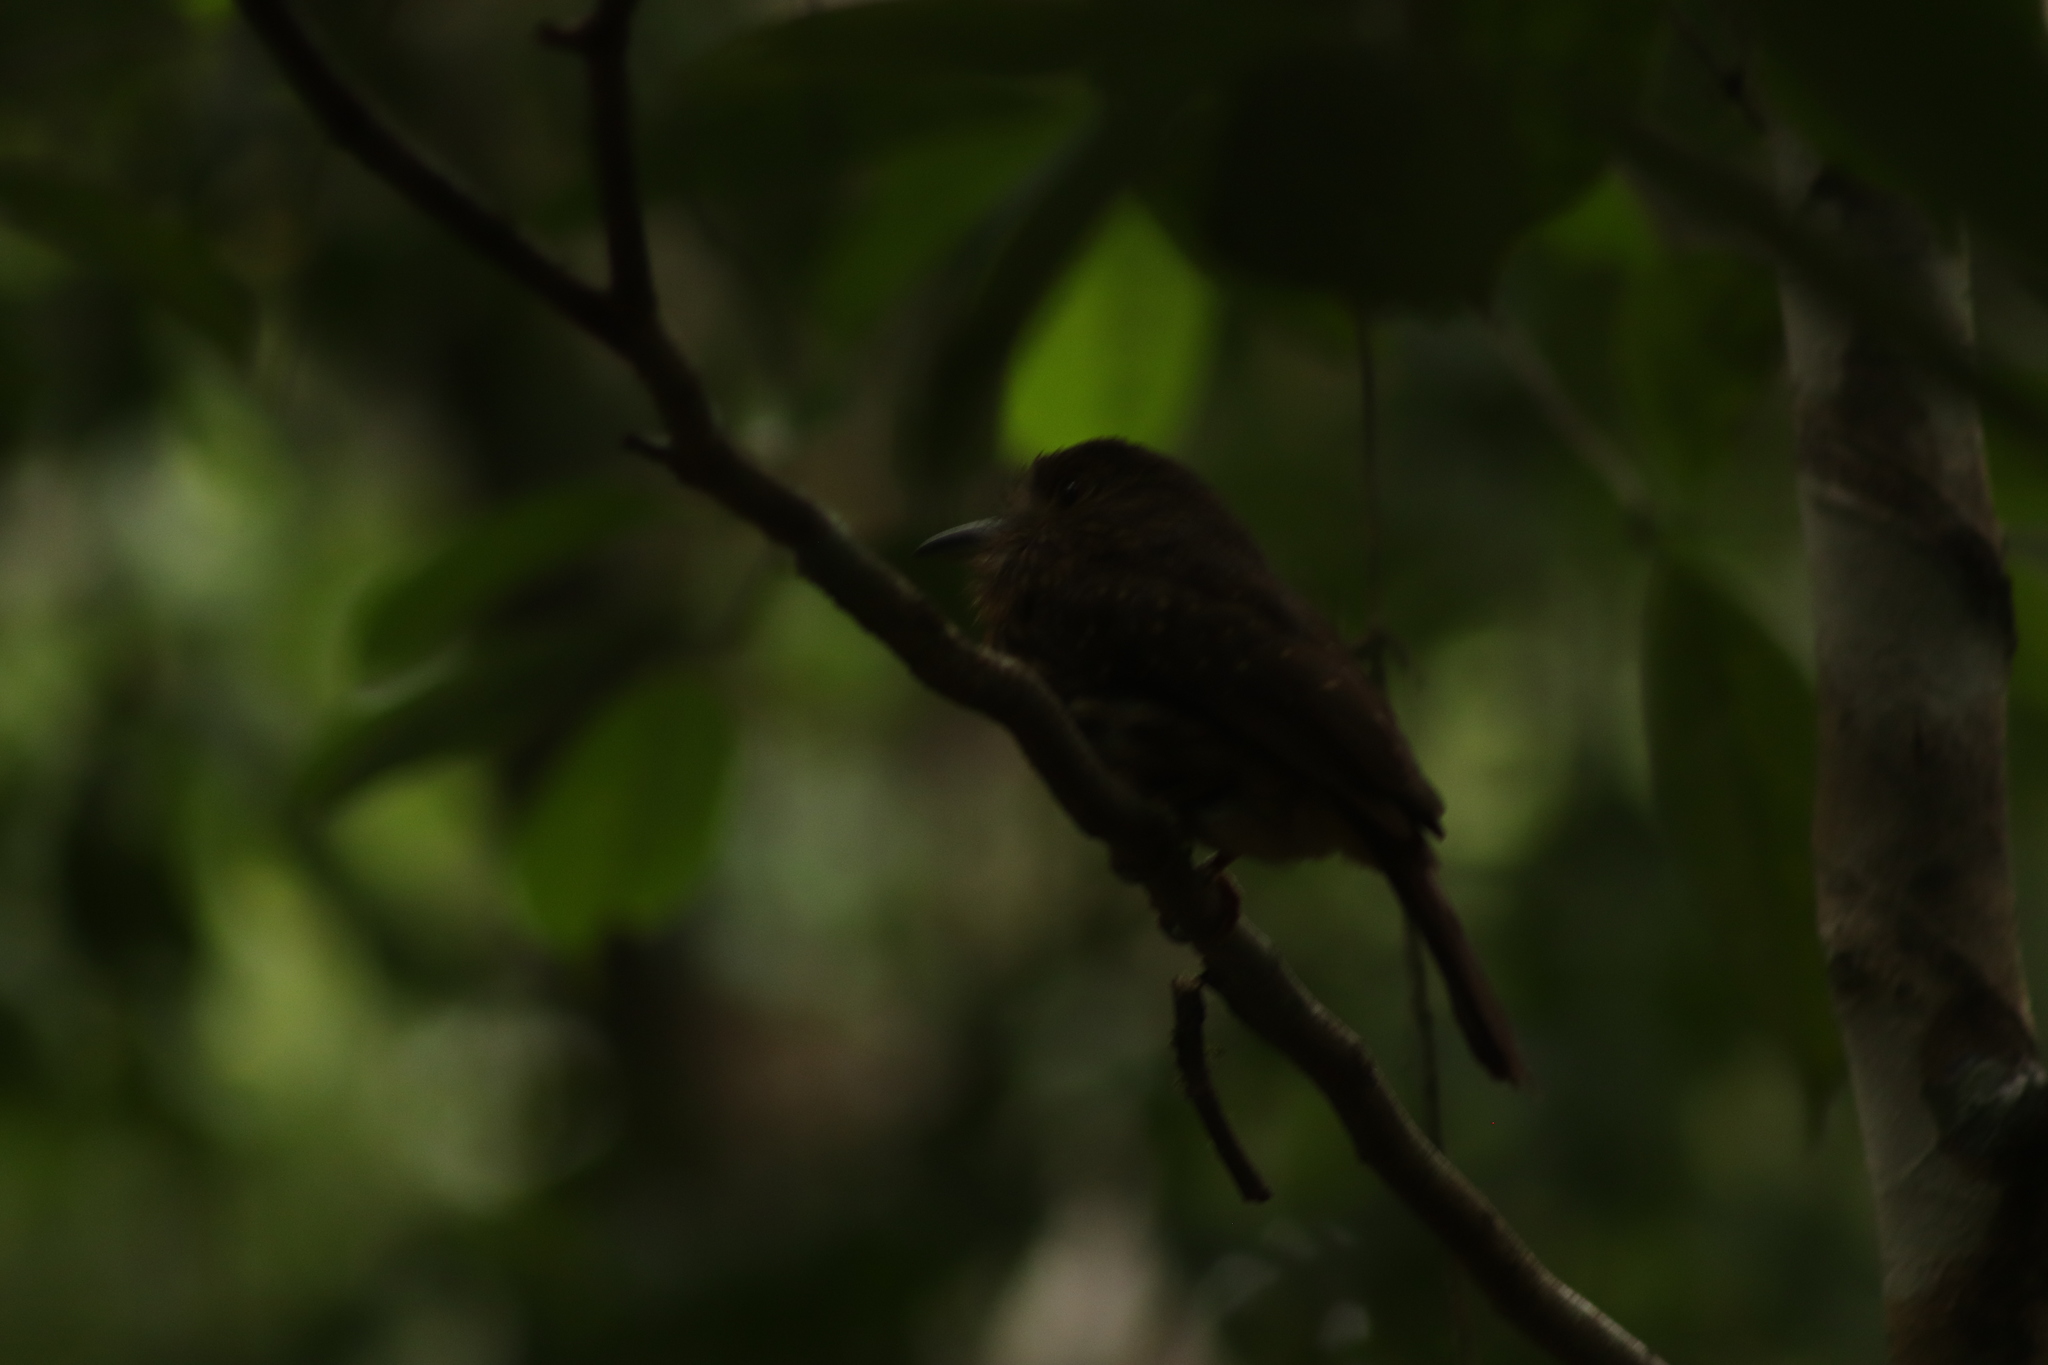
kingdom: Animalia
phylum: Chordata
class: Aves
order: Piciformes
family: Bucconidae
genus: Malacoptila
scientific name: Malacoptila panamensis
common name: White-whiskered puffbird
